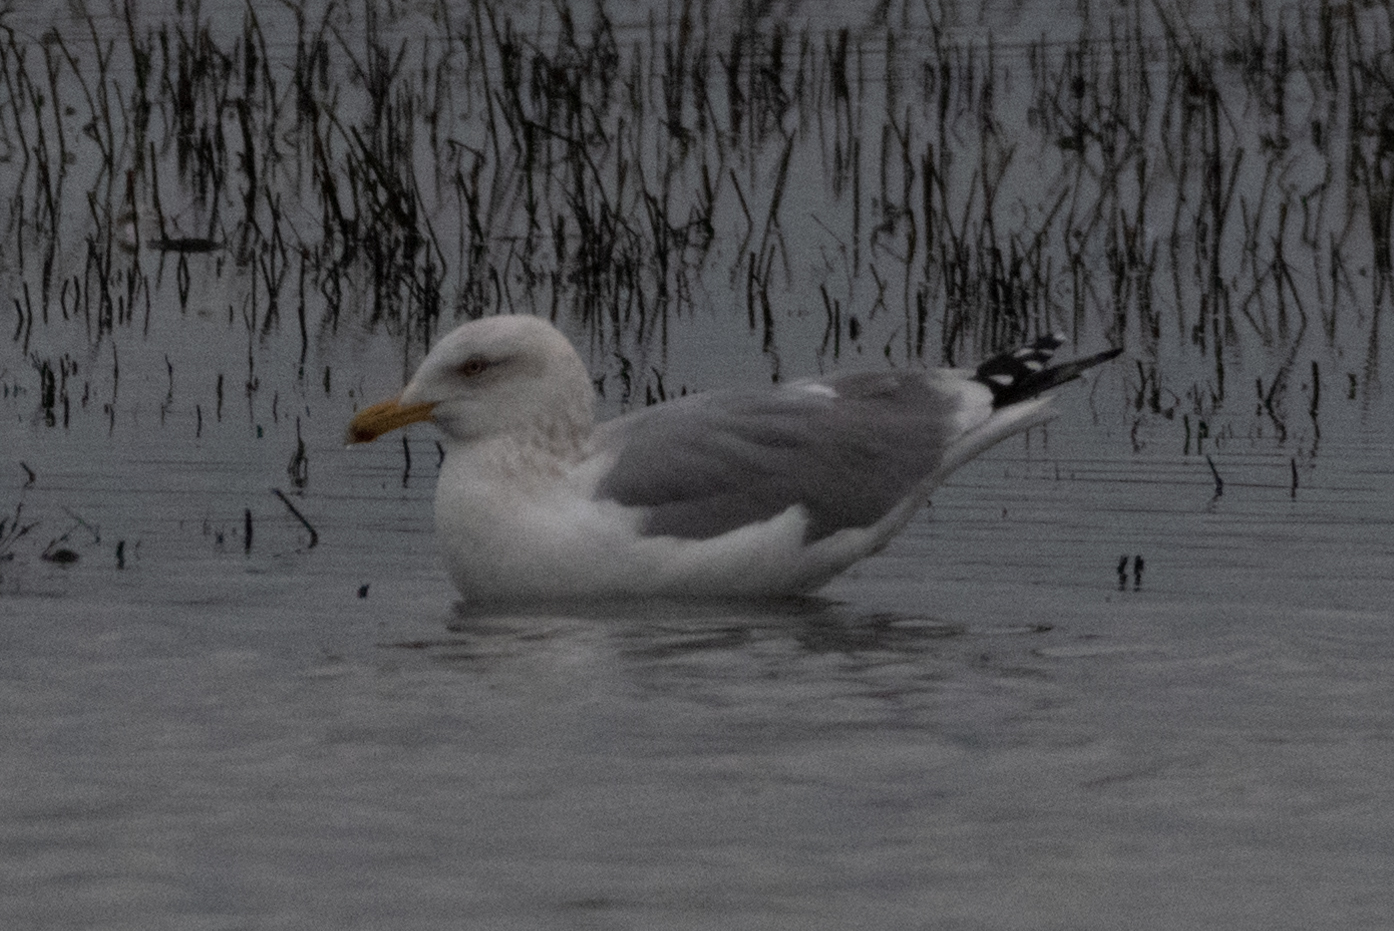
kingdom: Animalia
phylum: Chordata
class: Aves
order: Charadriiformes
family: Laridae
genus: Larus
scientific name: Larus argentatus
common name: Herring gull
